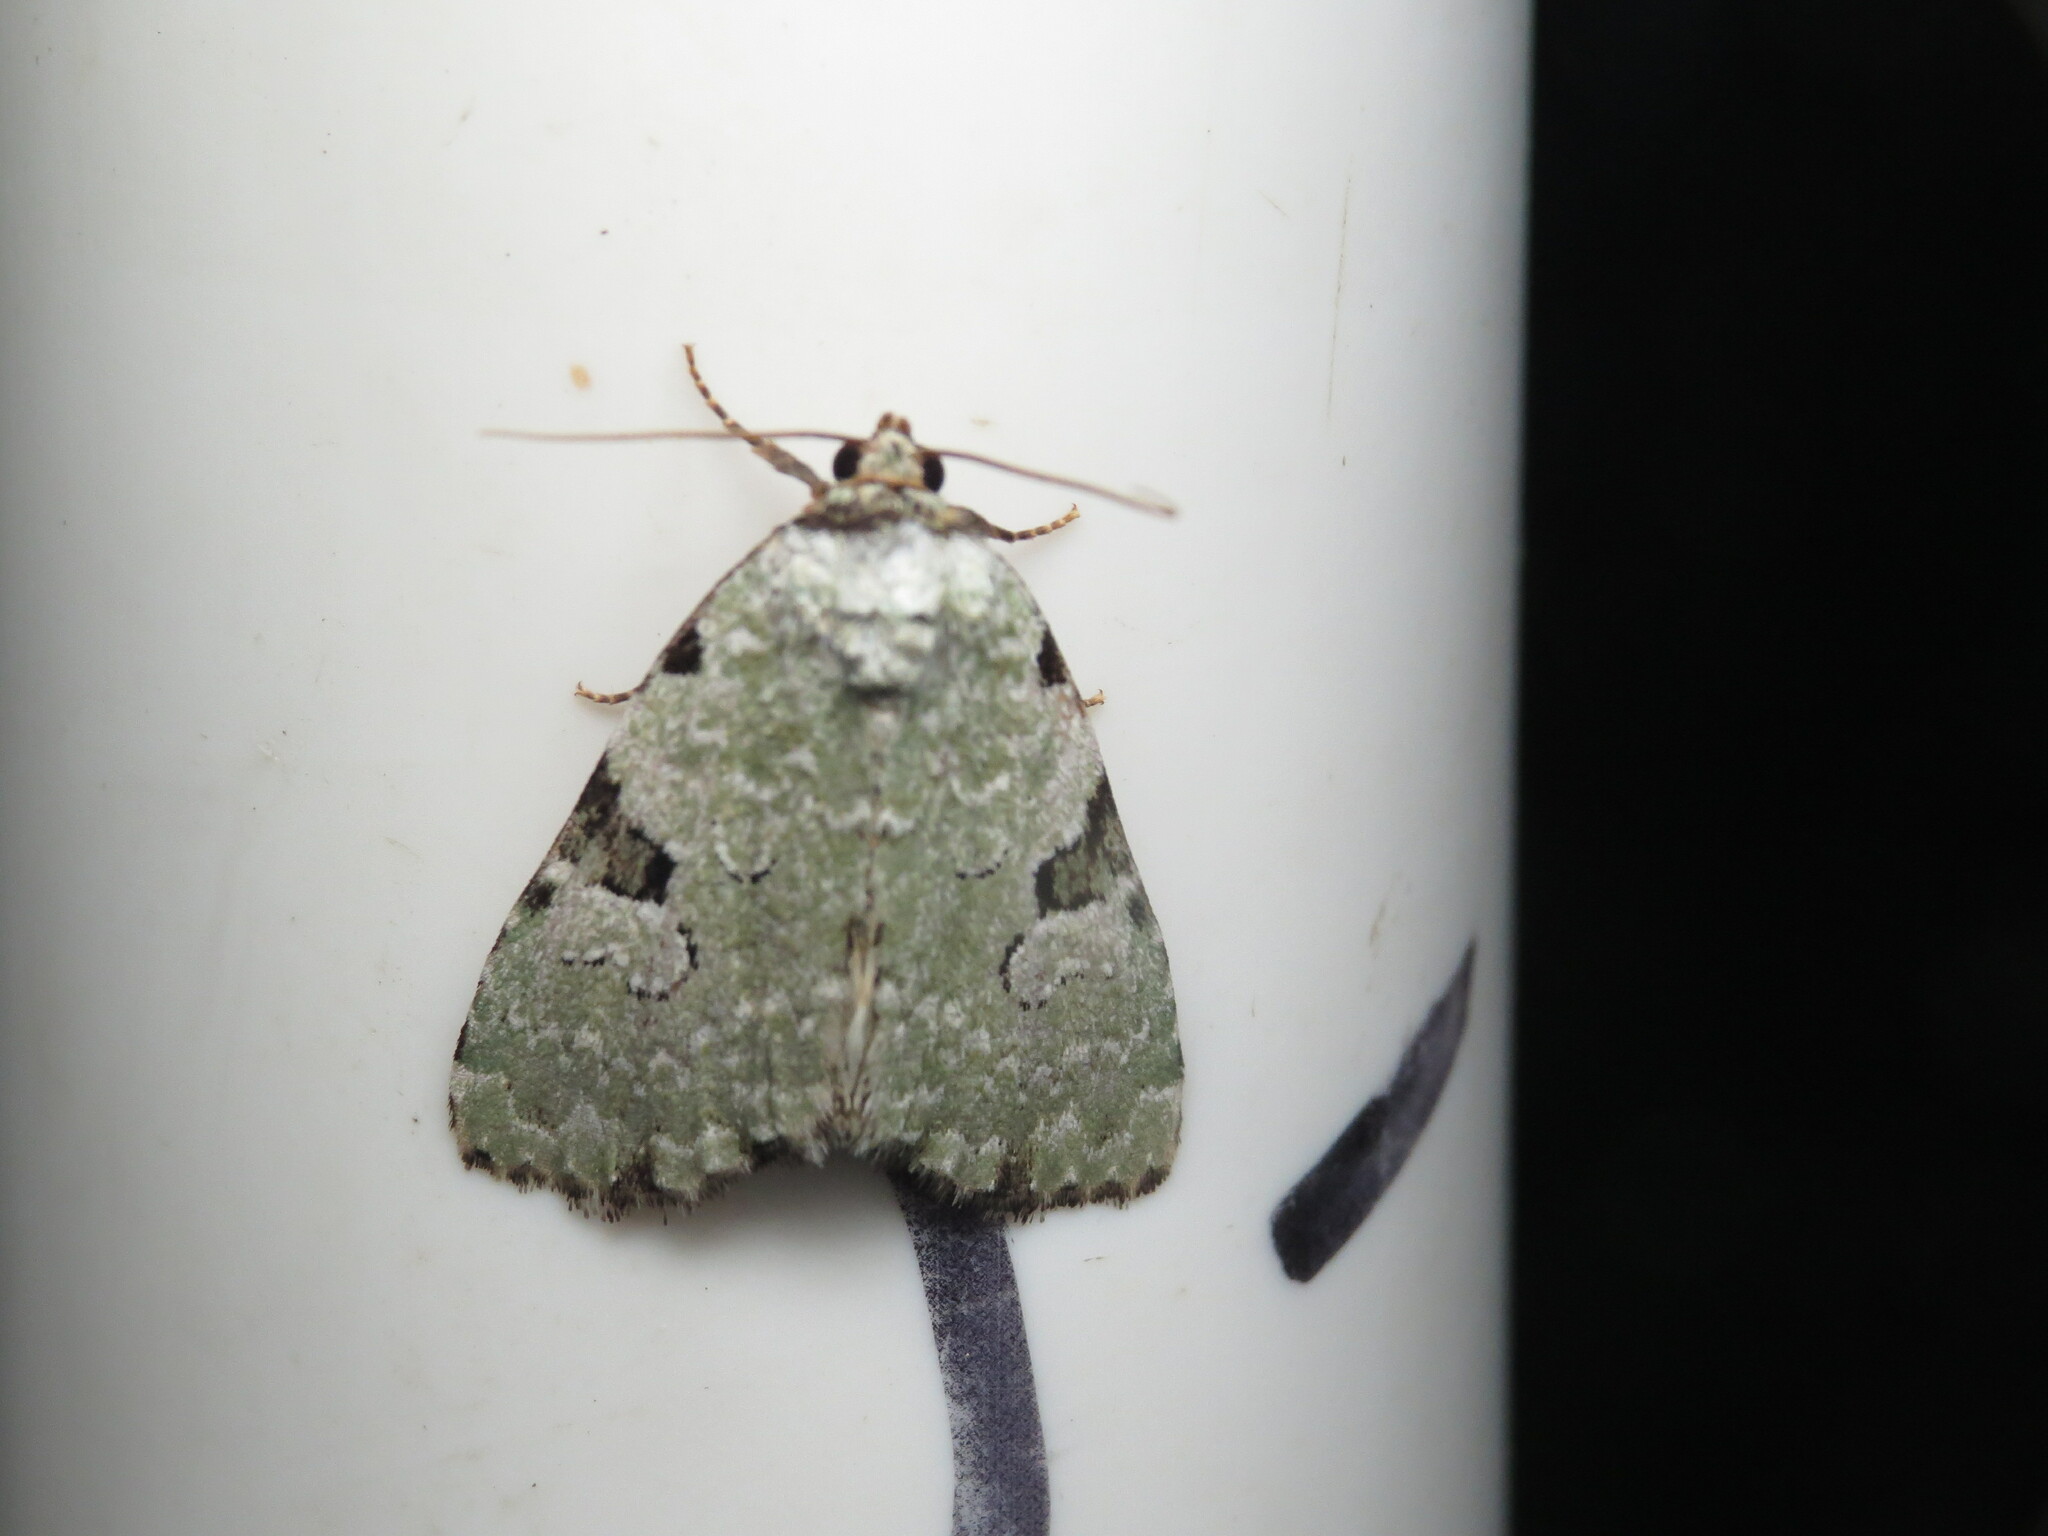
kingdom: Animalia
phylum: Arthropoda
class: Insecta
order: Lepidoptera
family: Noctuidae
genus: Leuconycta
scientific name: Leuconycta diphteroides
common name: Green leuconycta moth
